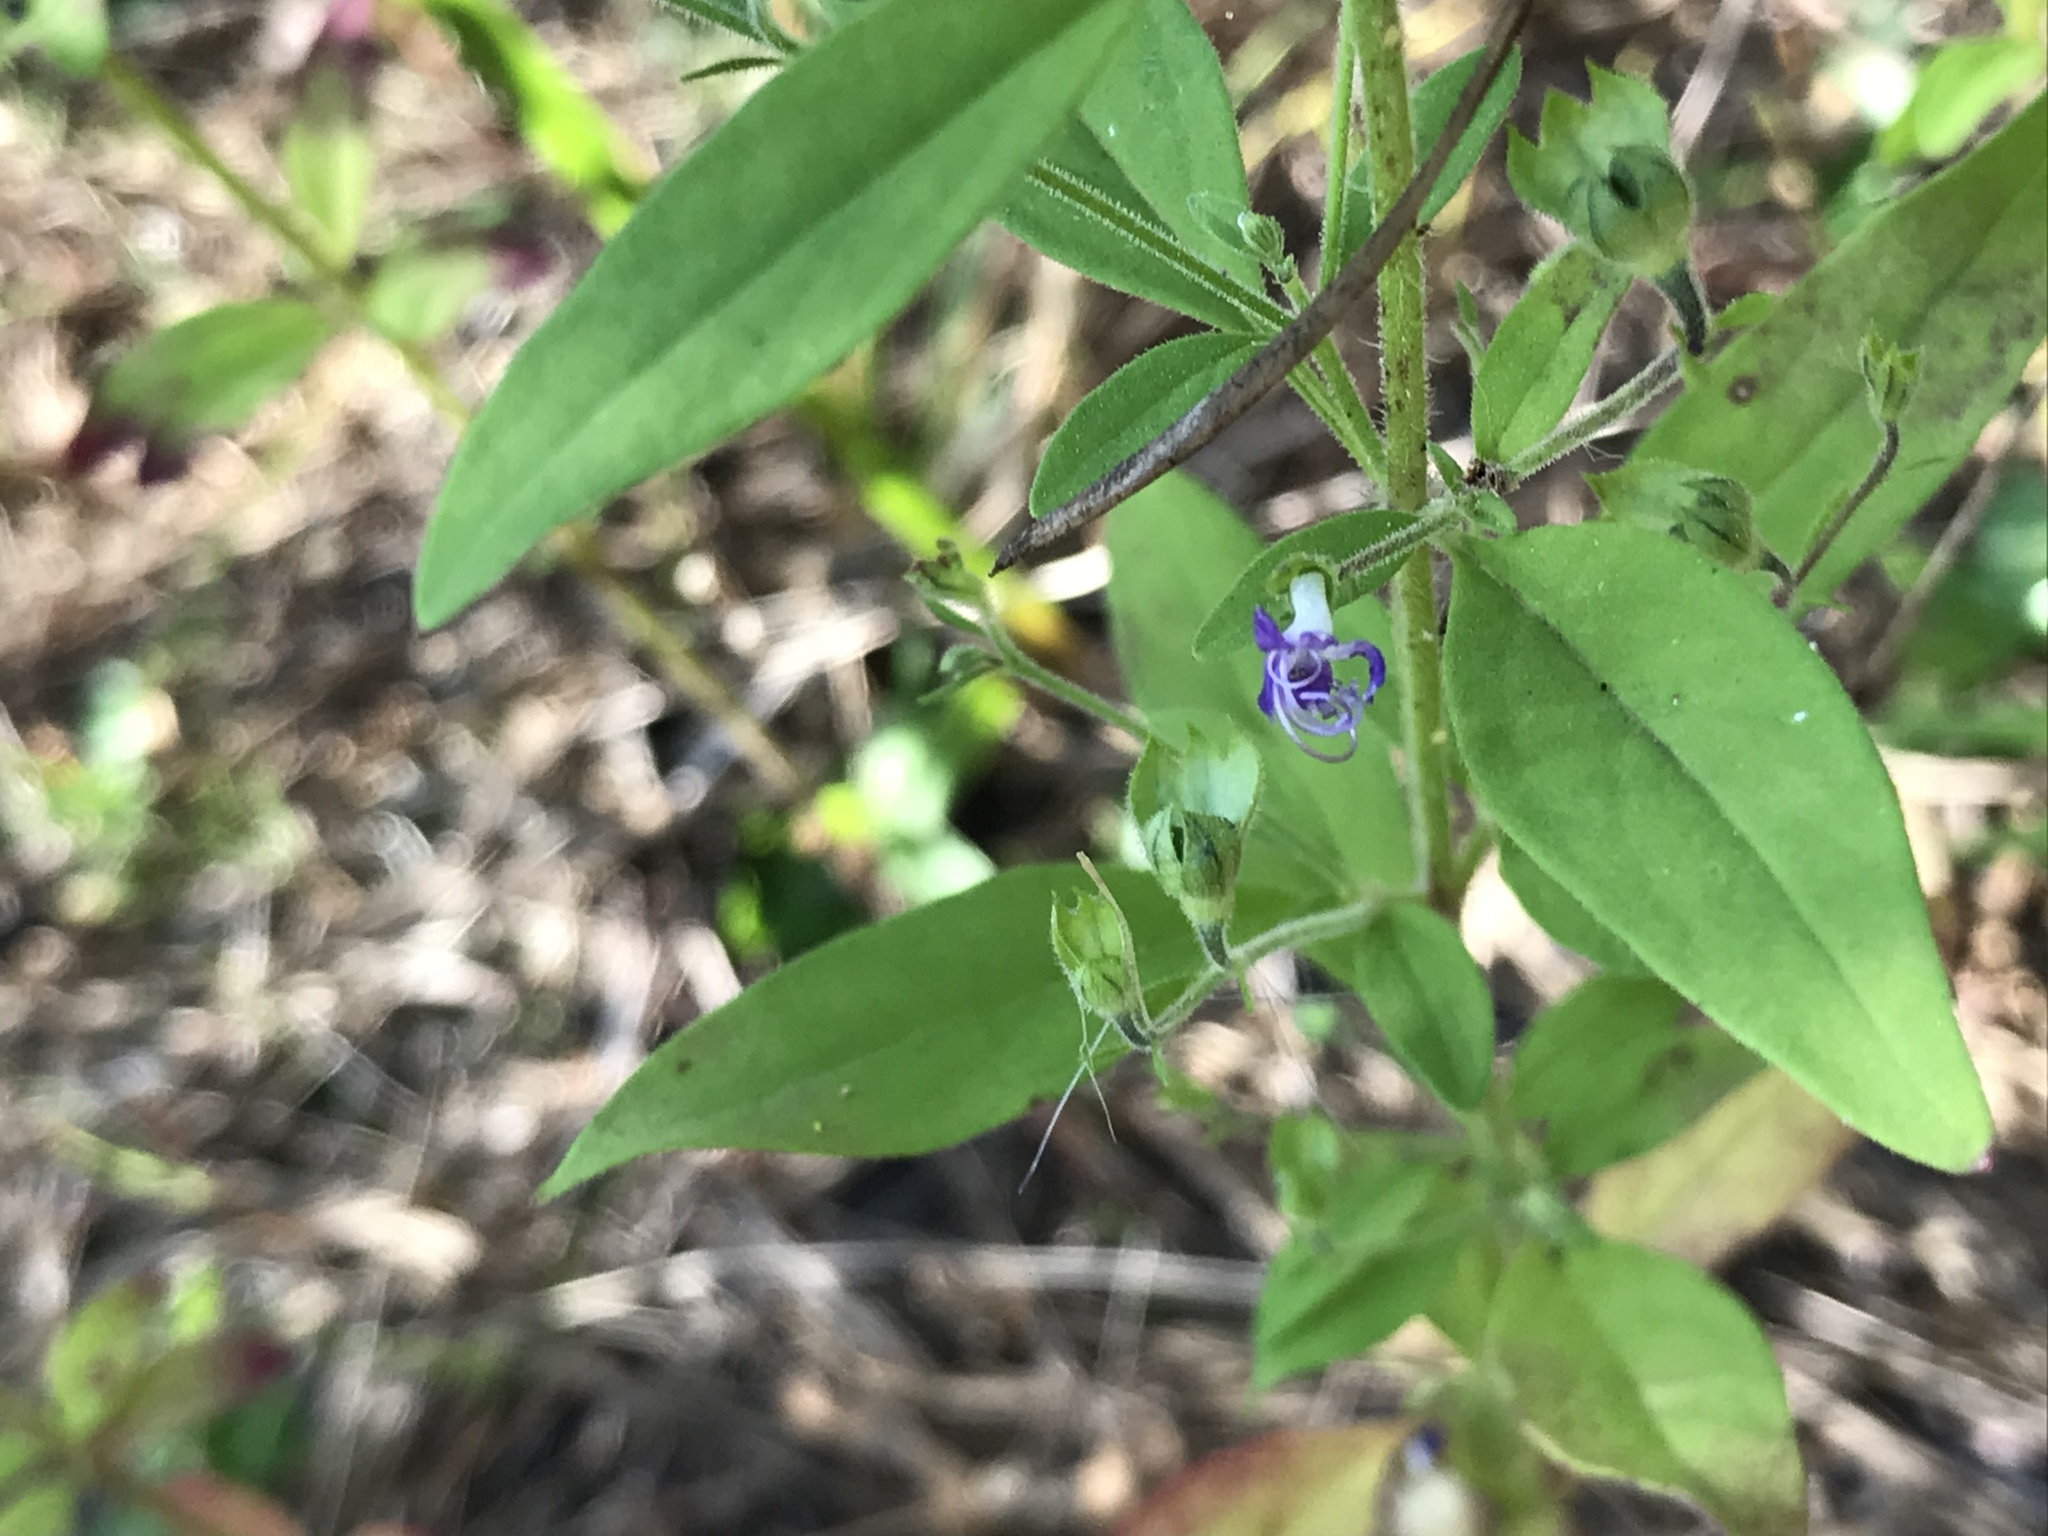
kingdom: Plantae
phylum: Tracheophyta
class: Magnoliopsida
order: Lamiales
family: Lamiaceae
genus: Trichostema
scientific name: Trichostema dichotomum
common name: Bastard pennyroyal
